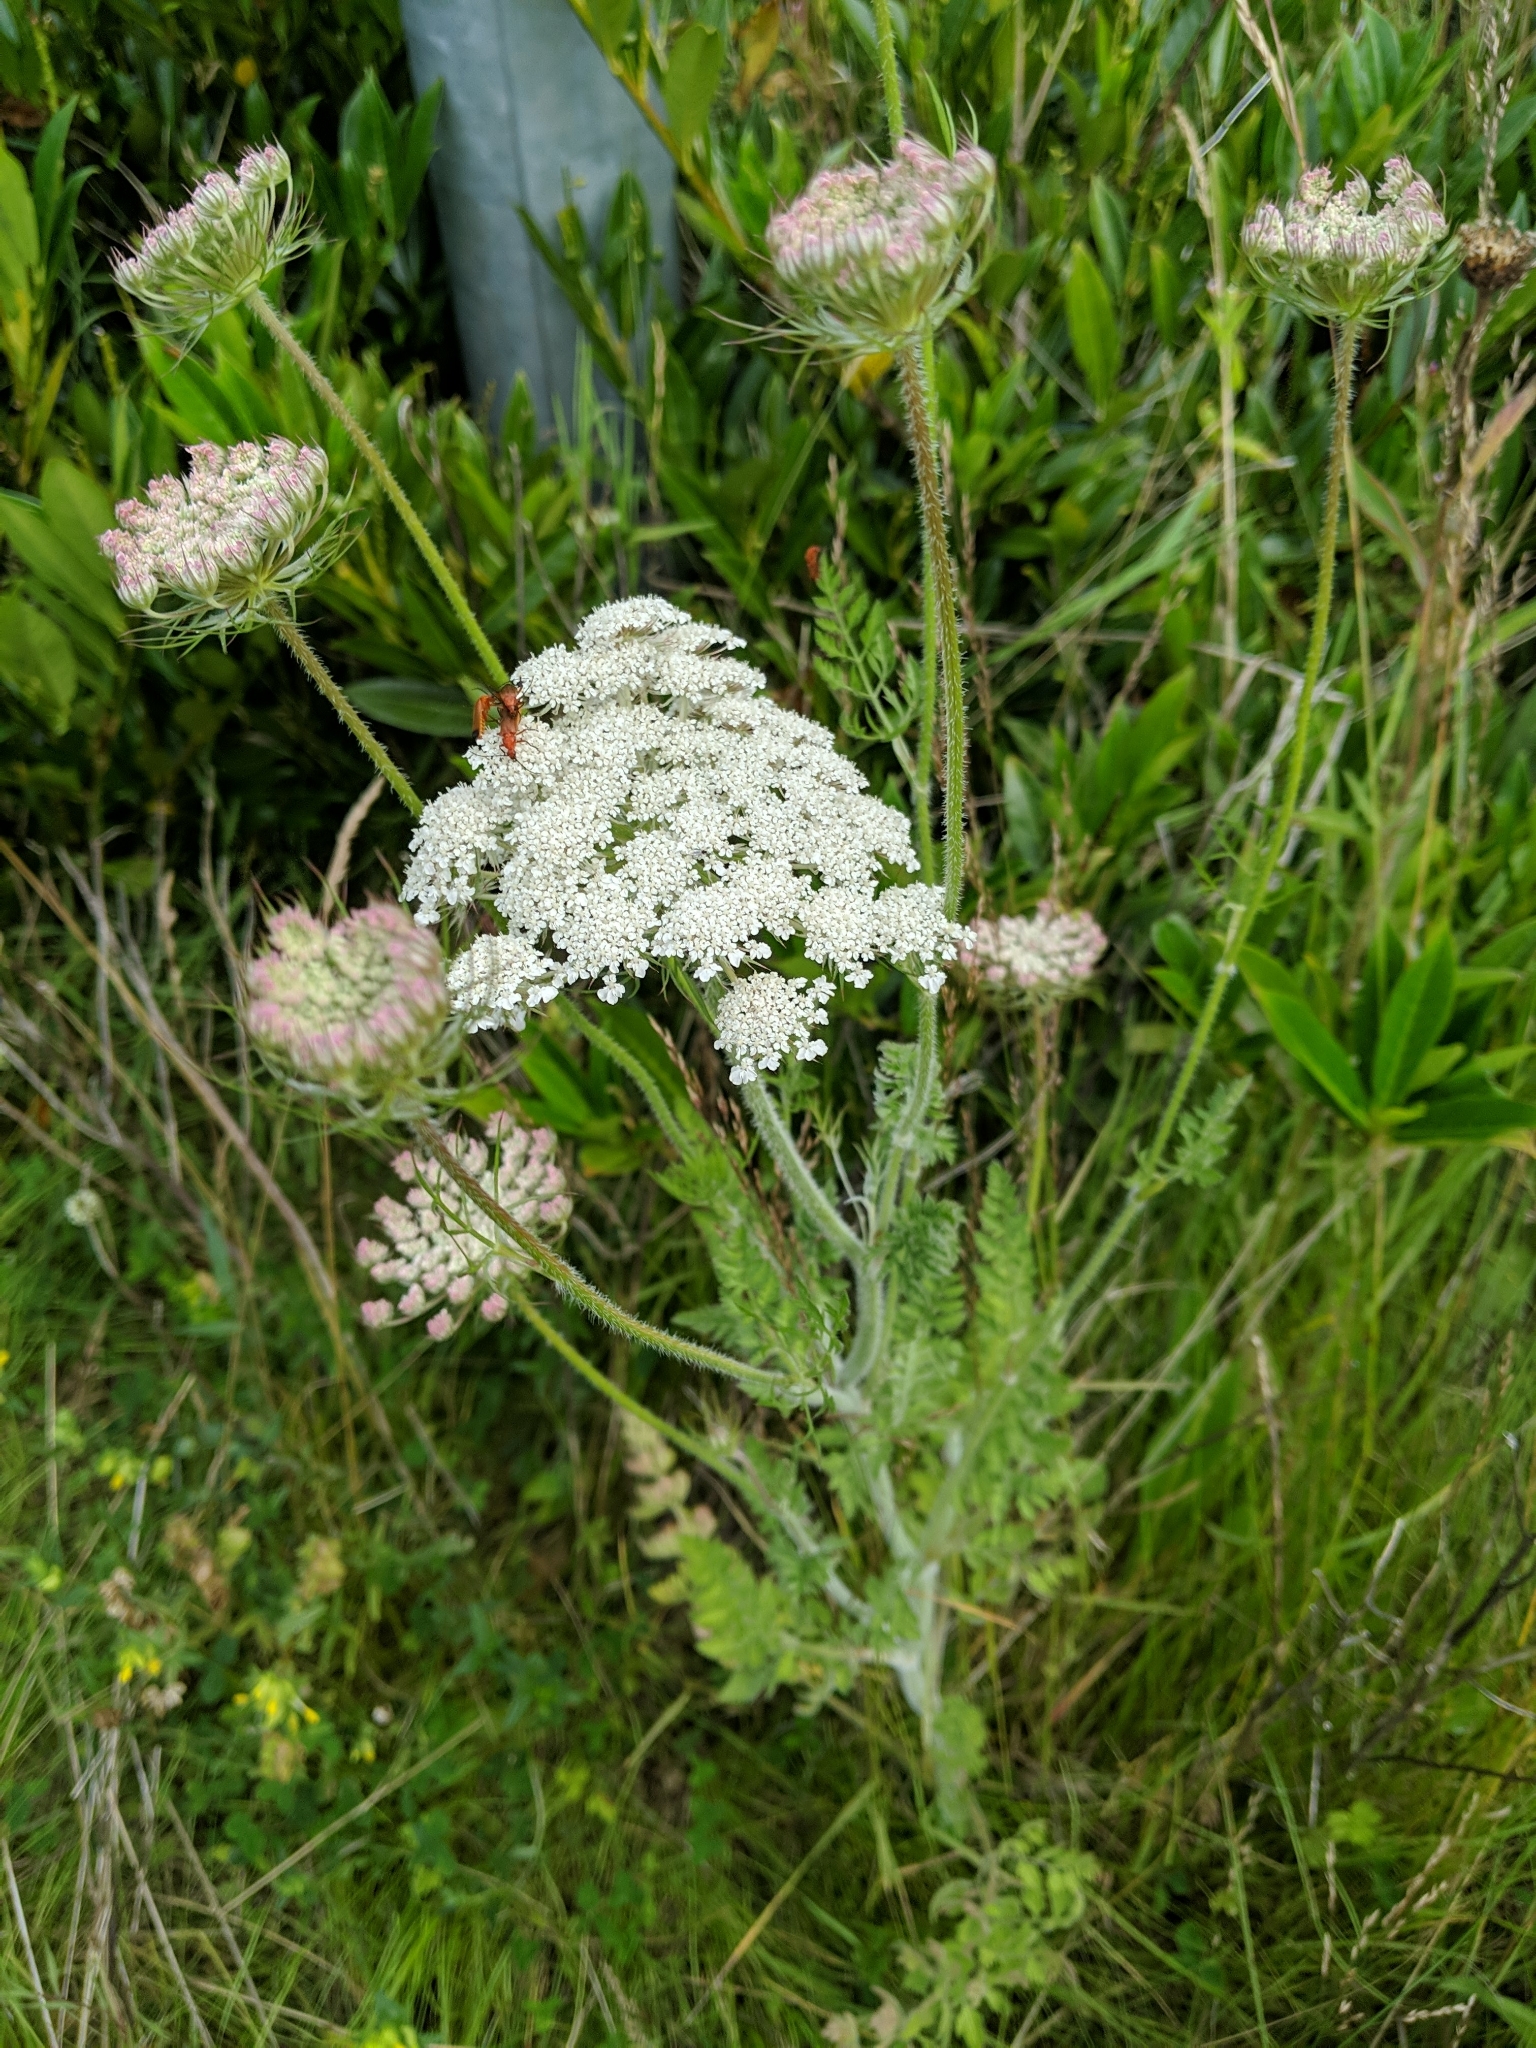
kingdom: Plantae
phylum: Tracheophyta
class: Magnoliopsida
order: Apiales
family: Apiaceae
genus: Daucus
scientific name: Daucus carota
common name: Wild carrot
